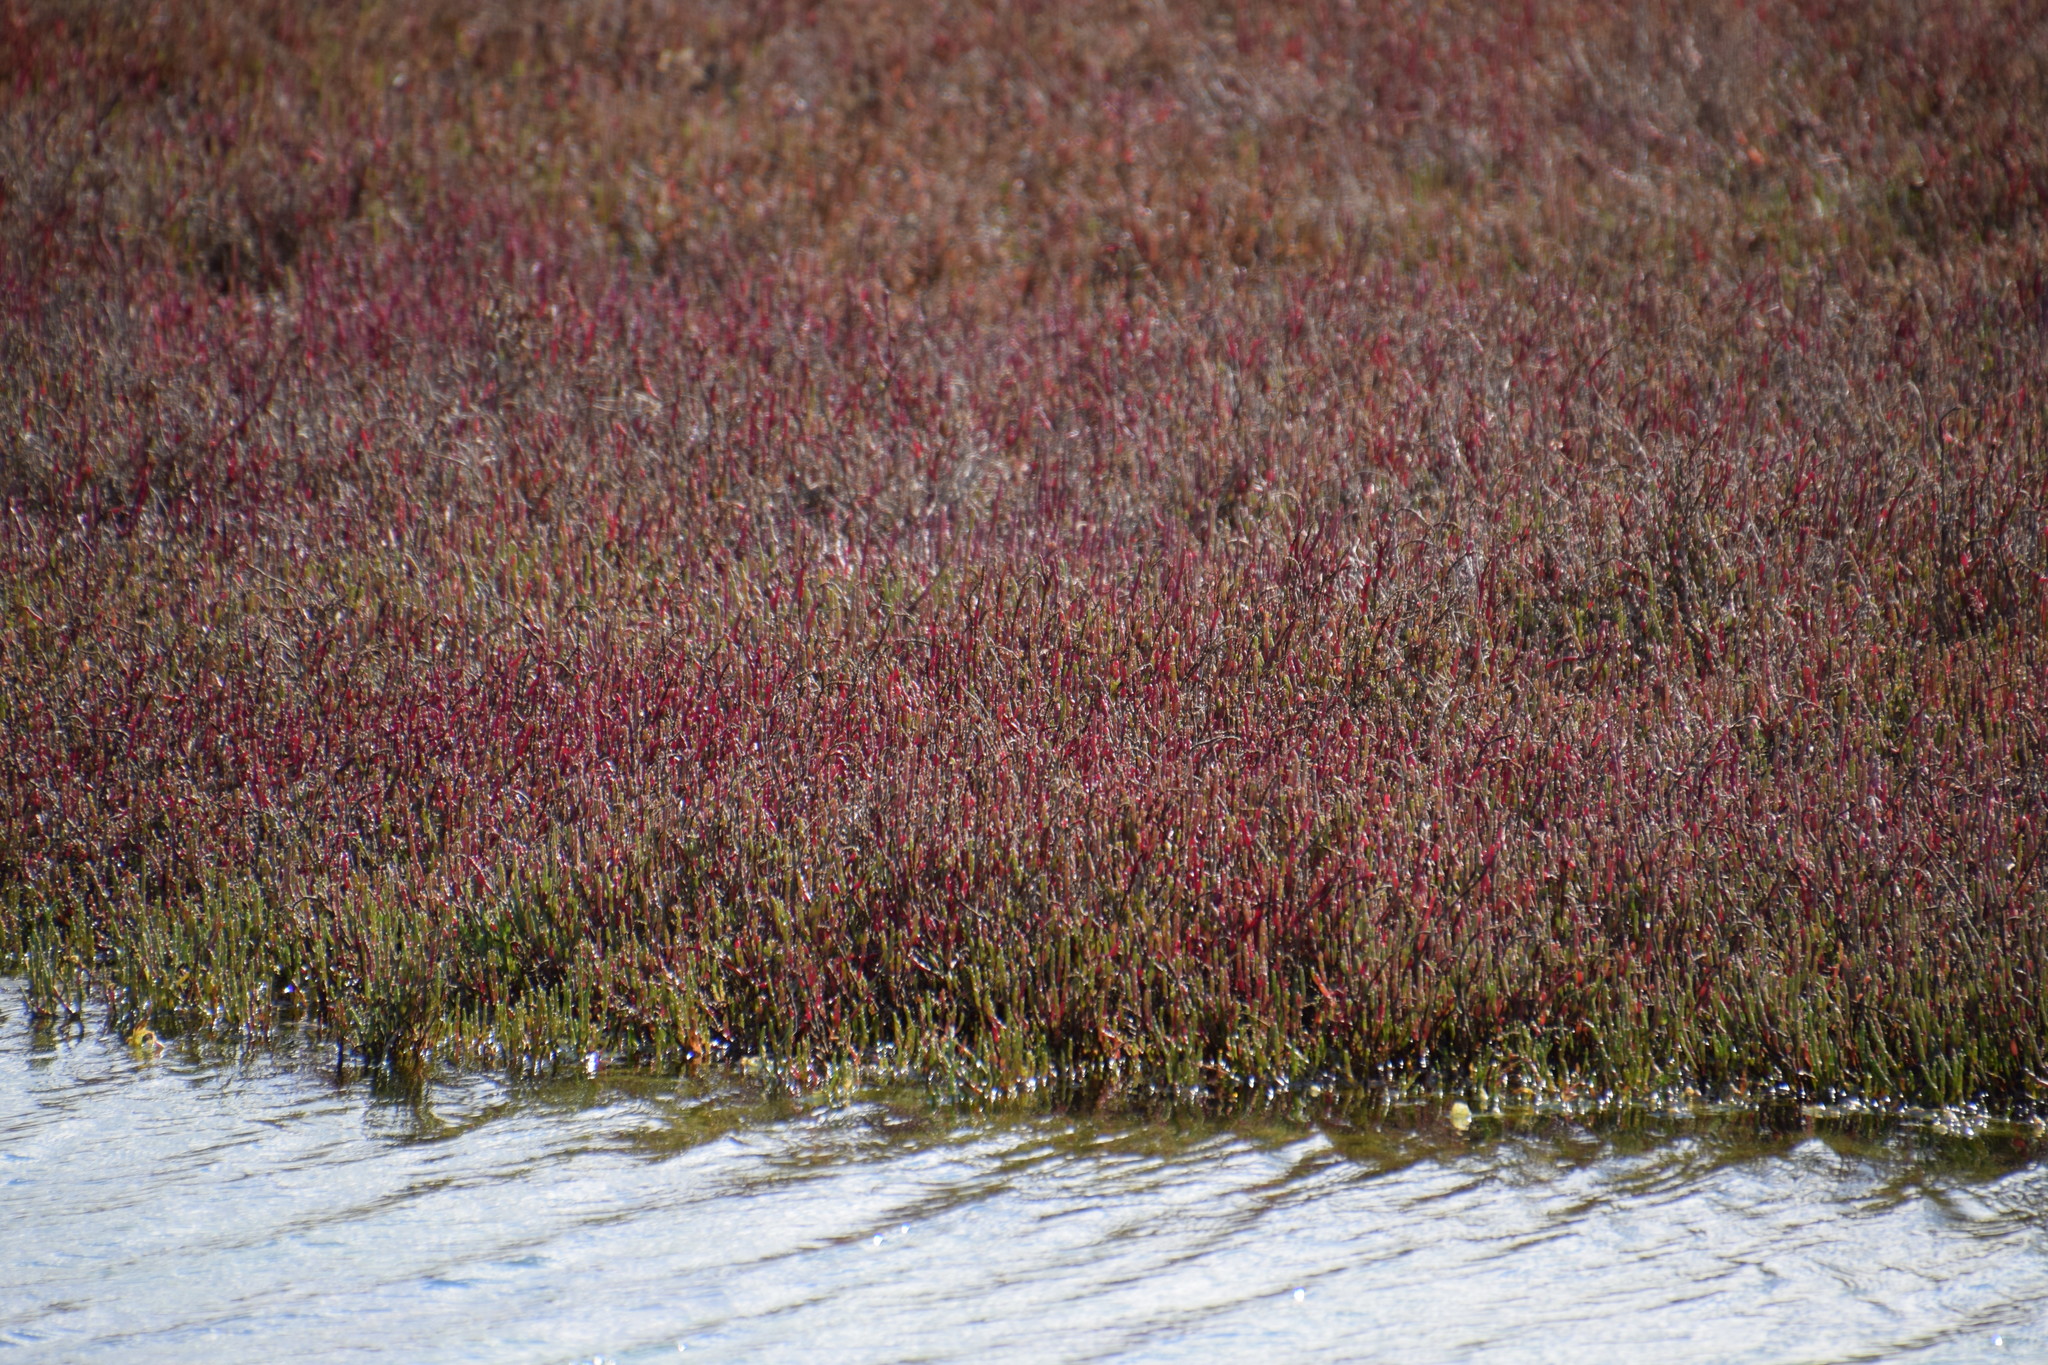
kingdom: Plantae
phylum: Tracheophyta
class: Magnoliopsida
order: Caryophyllales
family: Amaranthaceae
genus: Salicornia
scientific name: Salicornia quinqueflora
